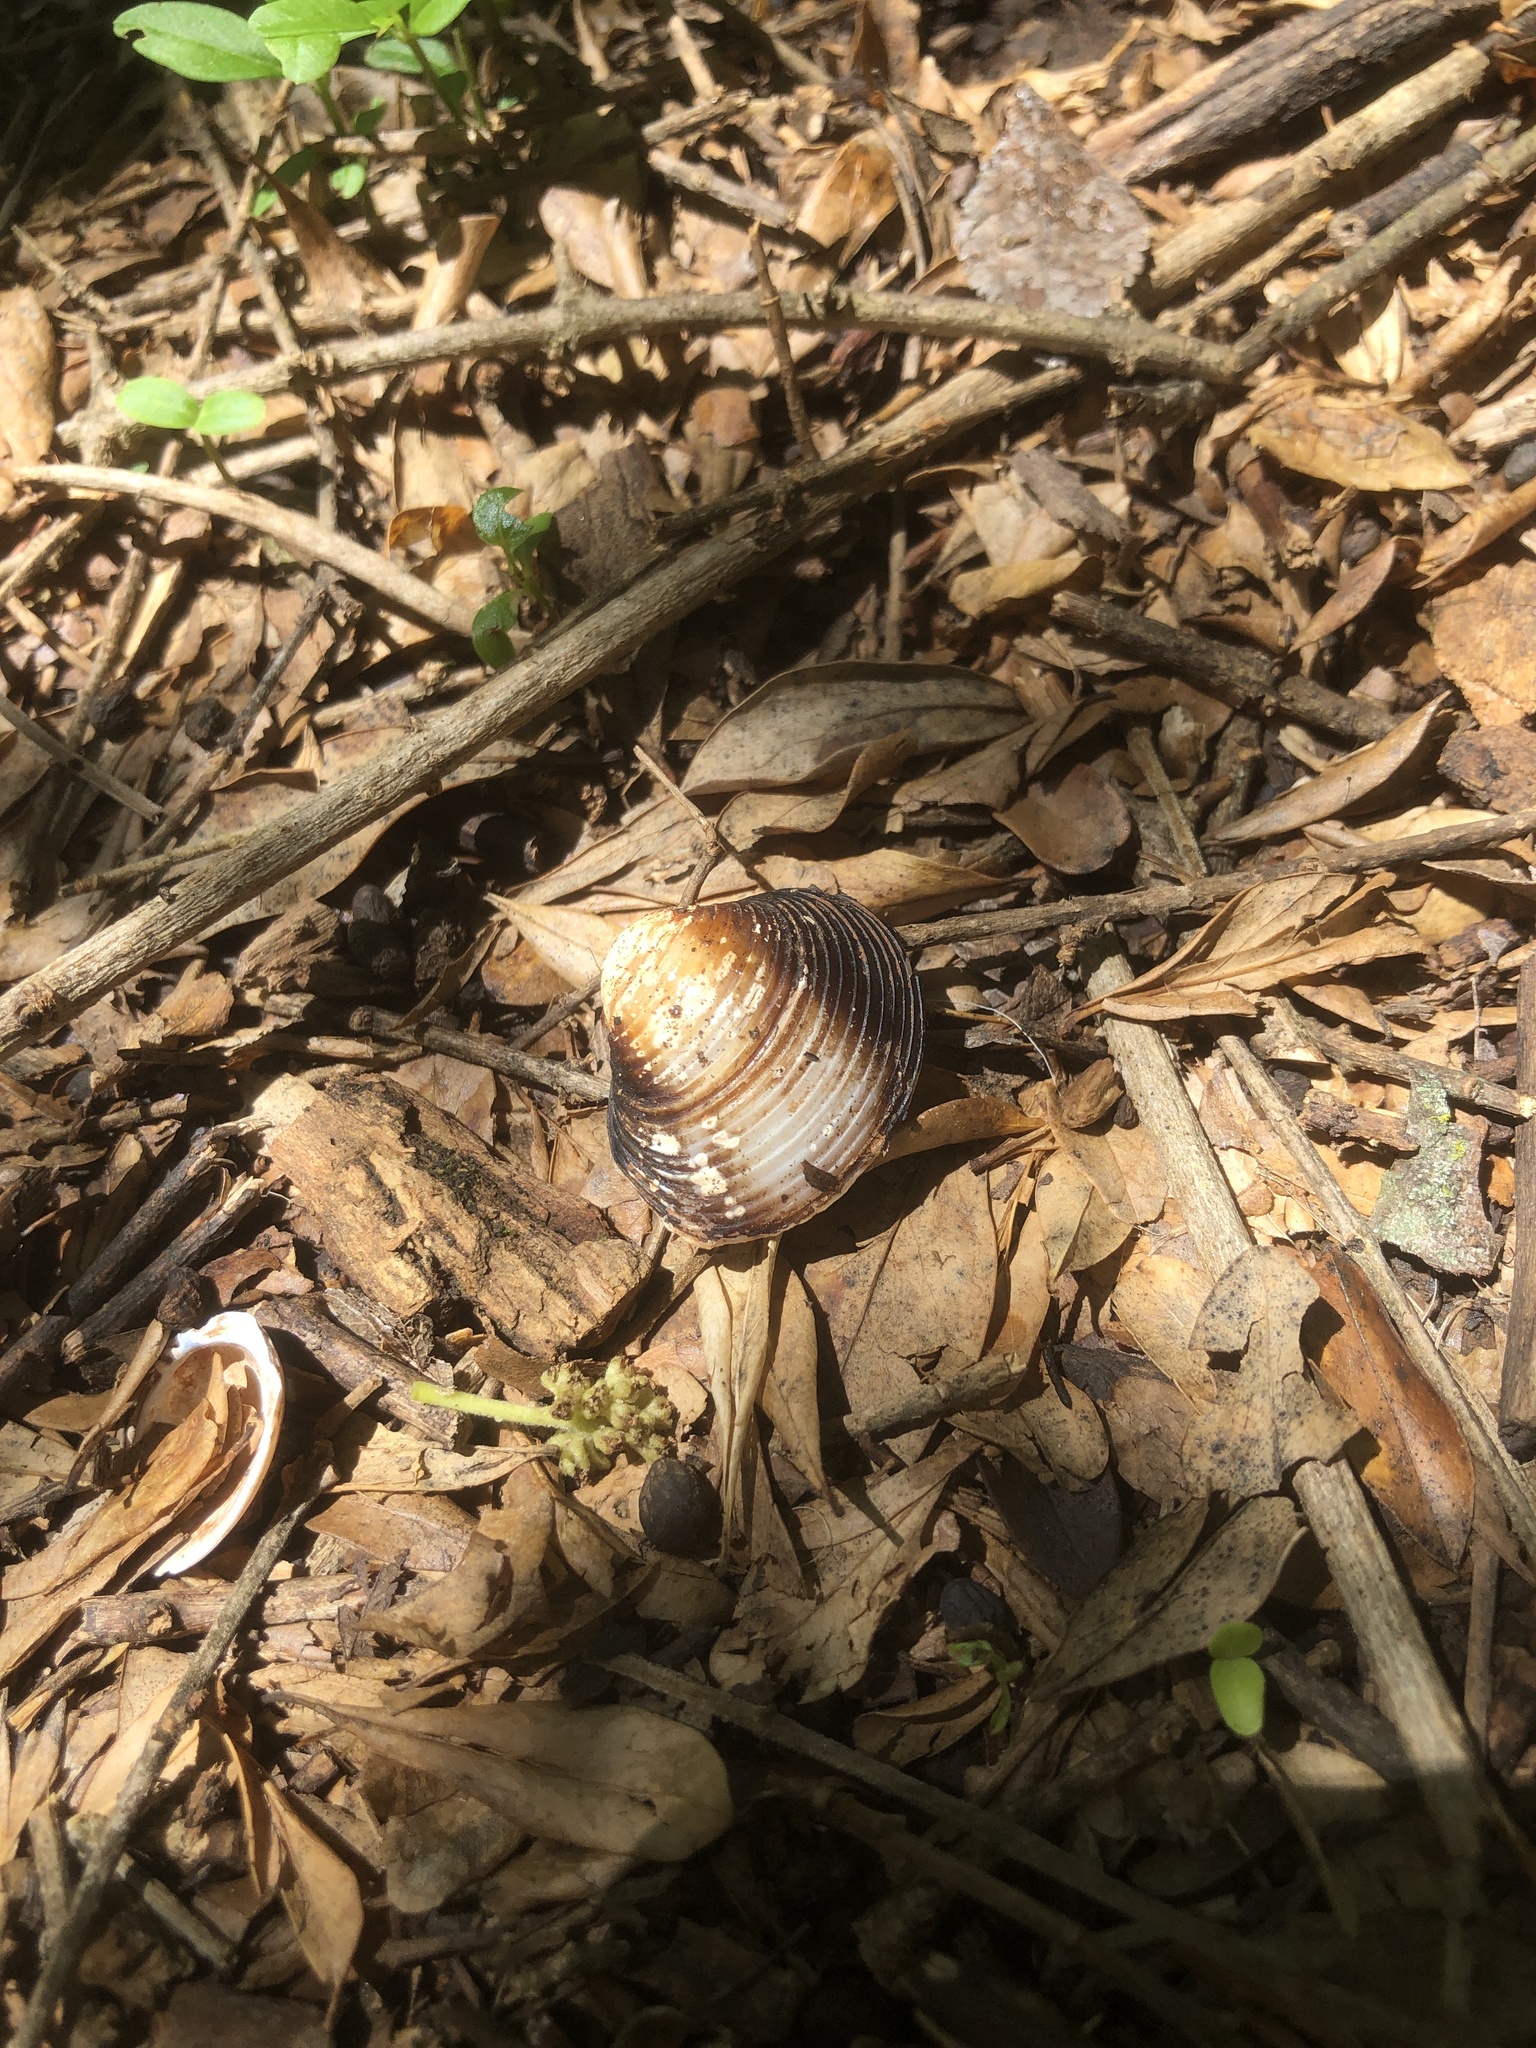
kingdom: Animalia
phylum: Mollusca
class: Bivalvia
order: Venerida
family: Cyrenidae
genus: Corbicula
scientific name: Corbicula fluminea
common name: Asian clam
